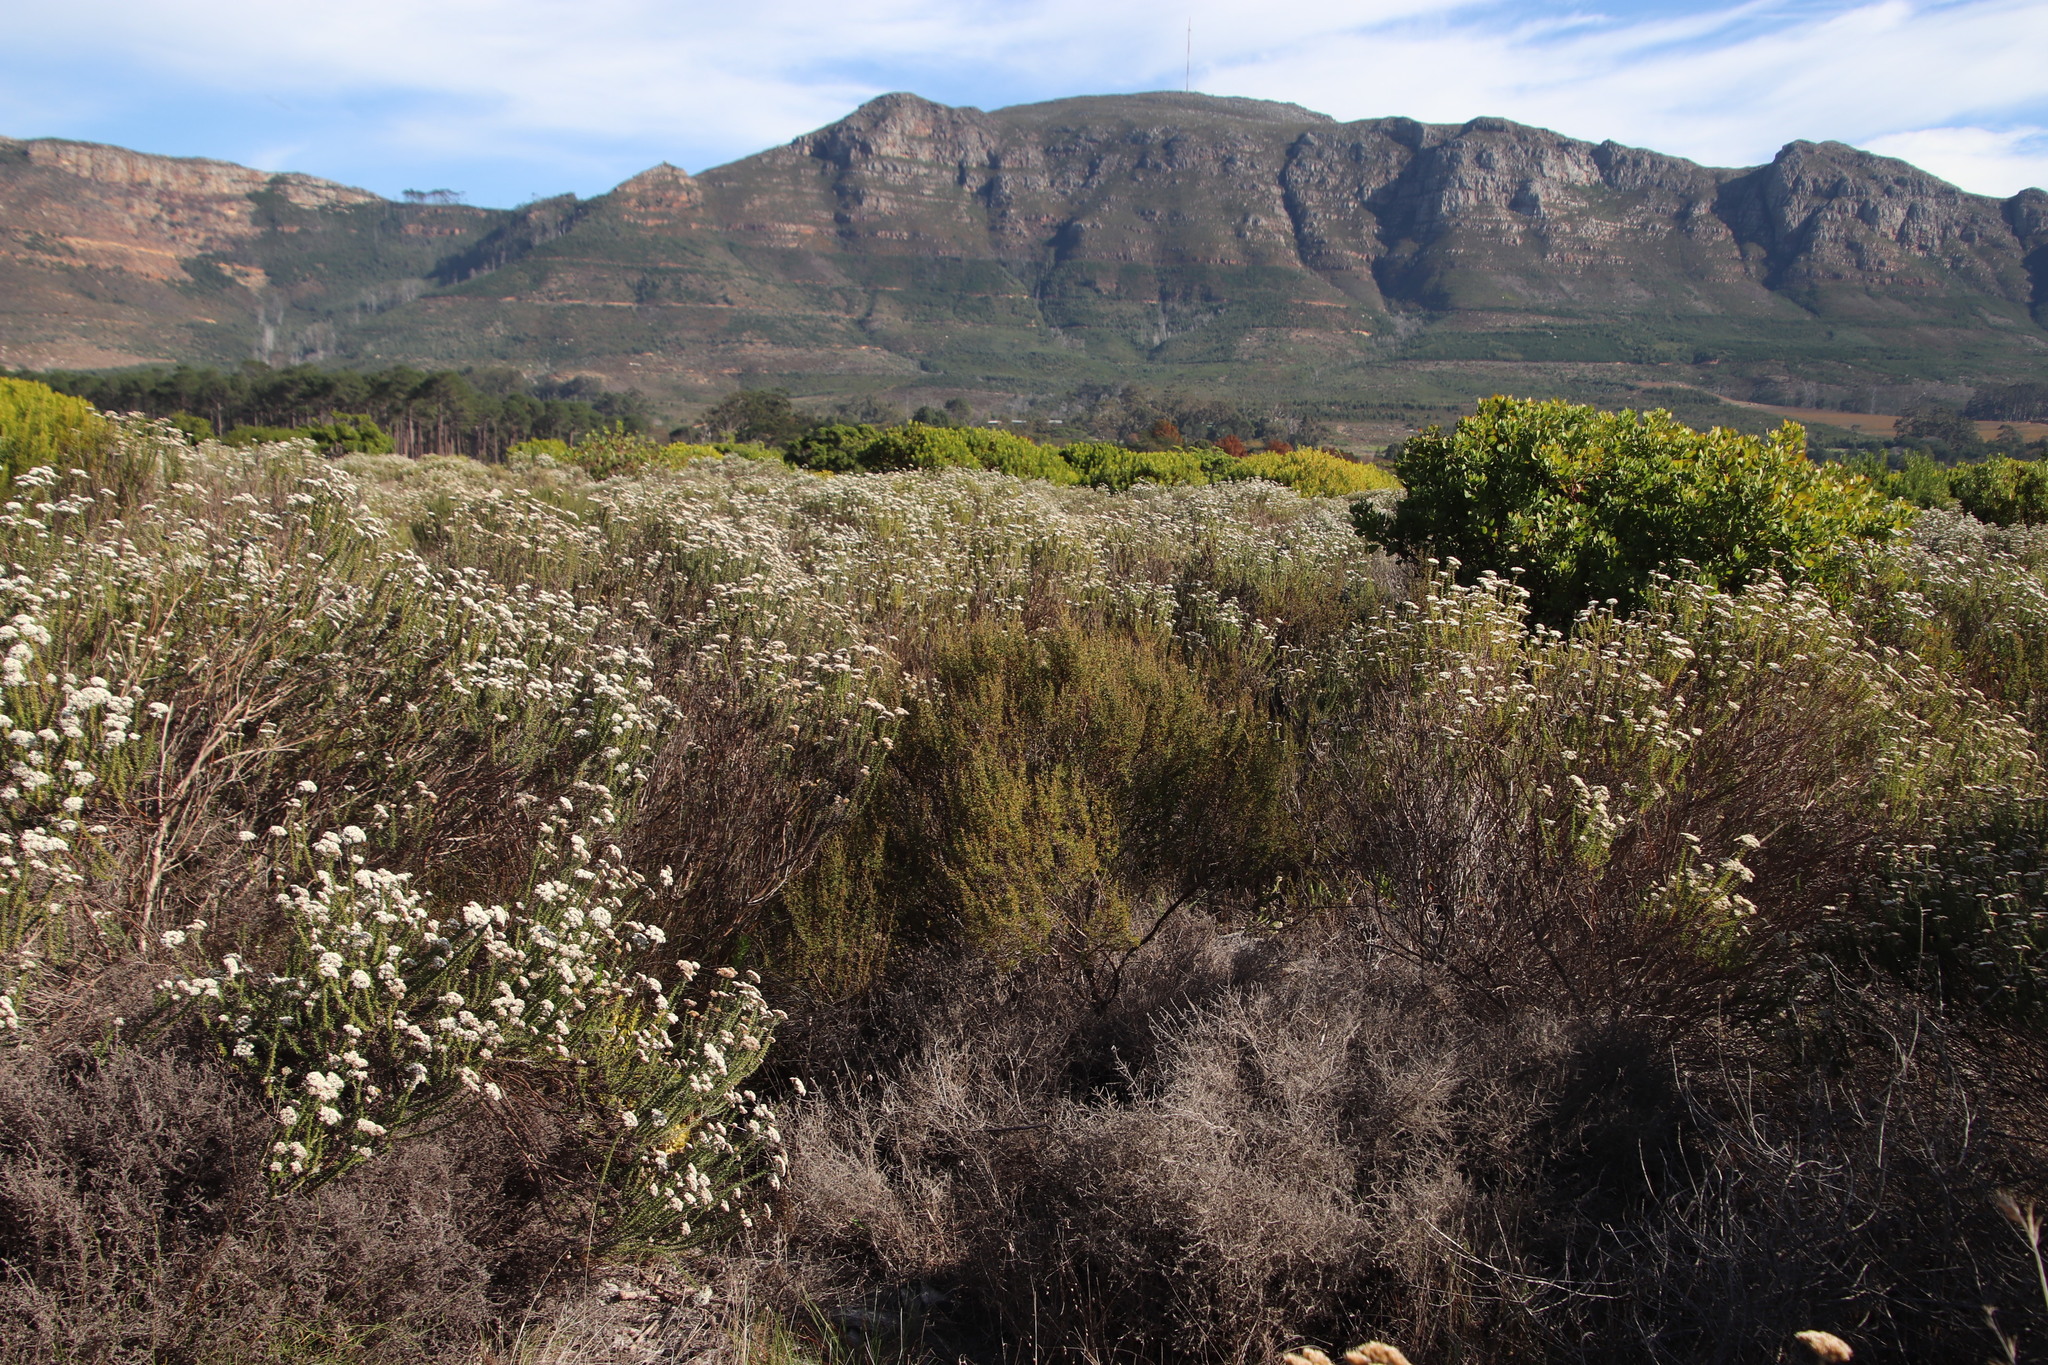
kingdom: Plantae
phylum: Tracheophyta
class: Magnoliopsida
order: Rosales
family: Rosaceae
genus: Cliffortia
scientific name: Cliffortia falcata
